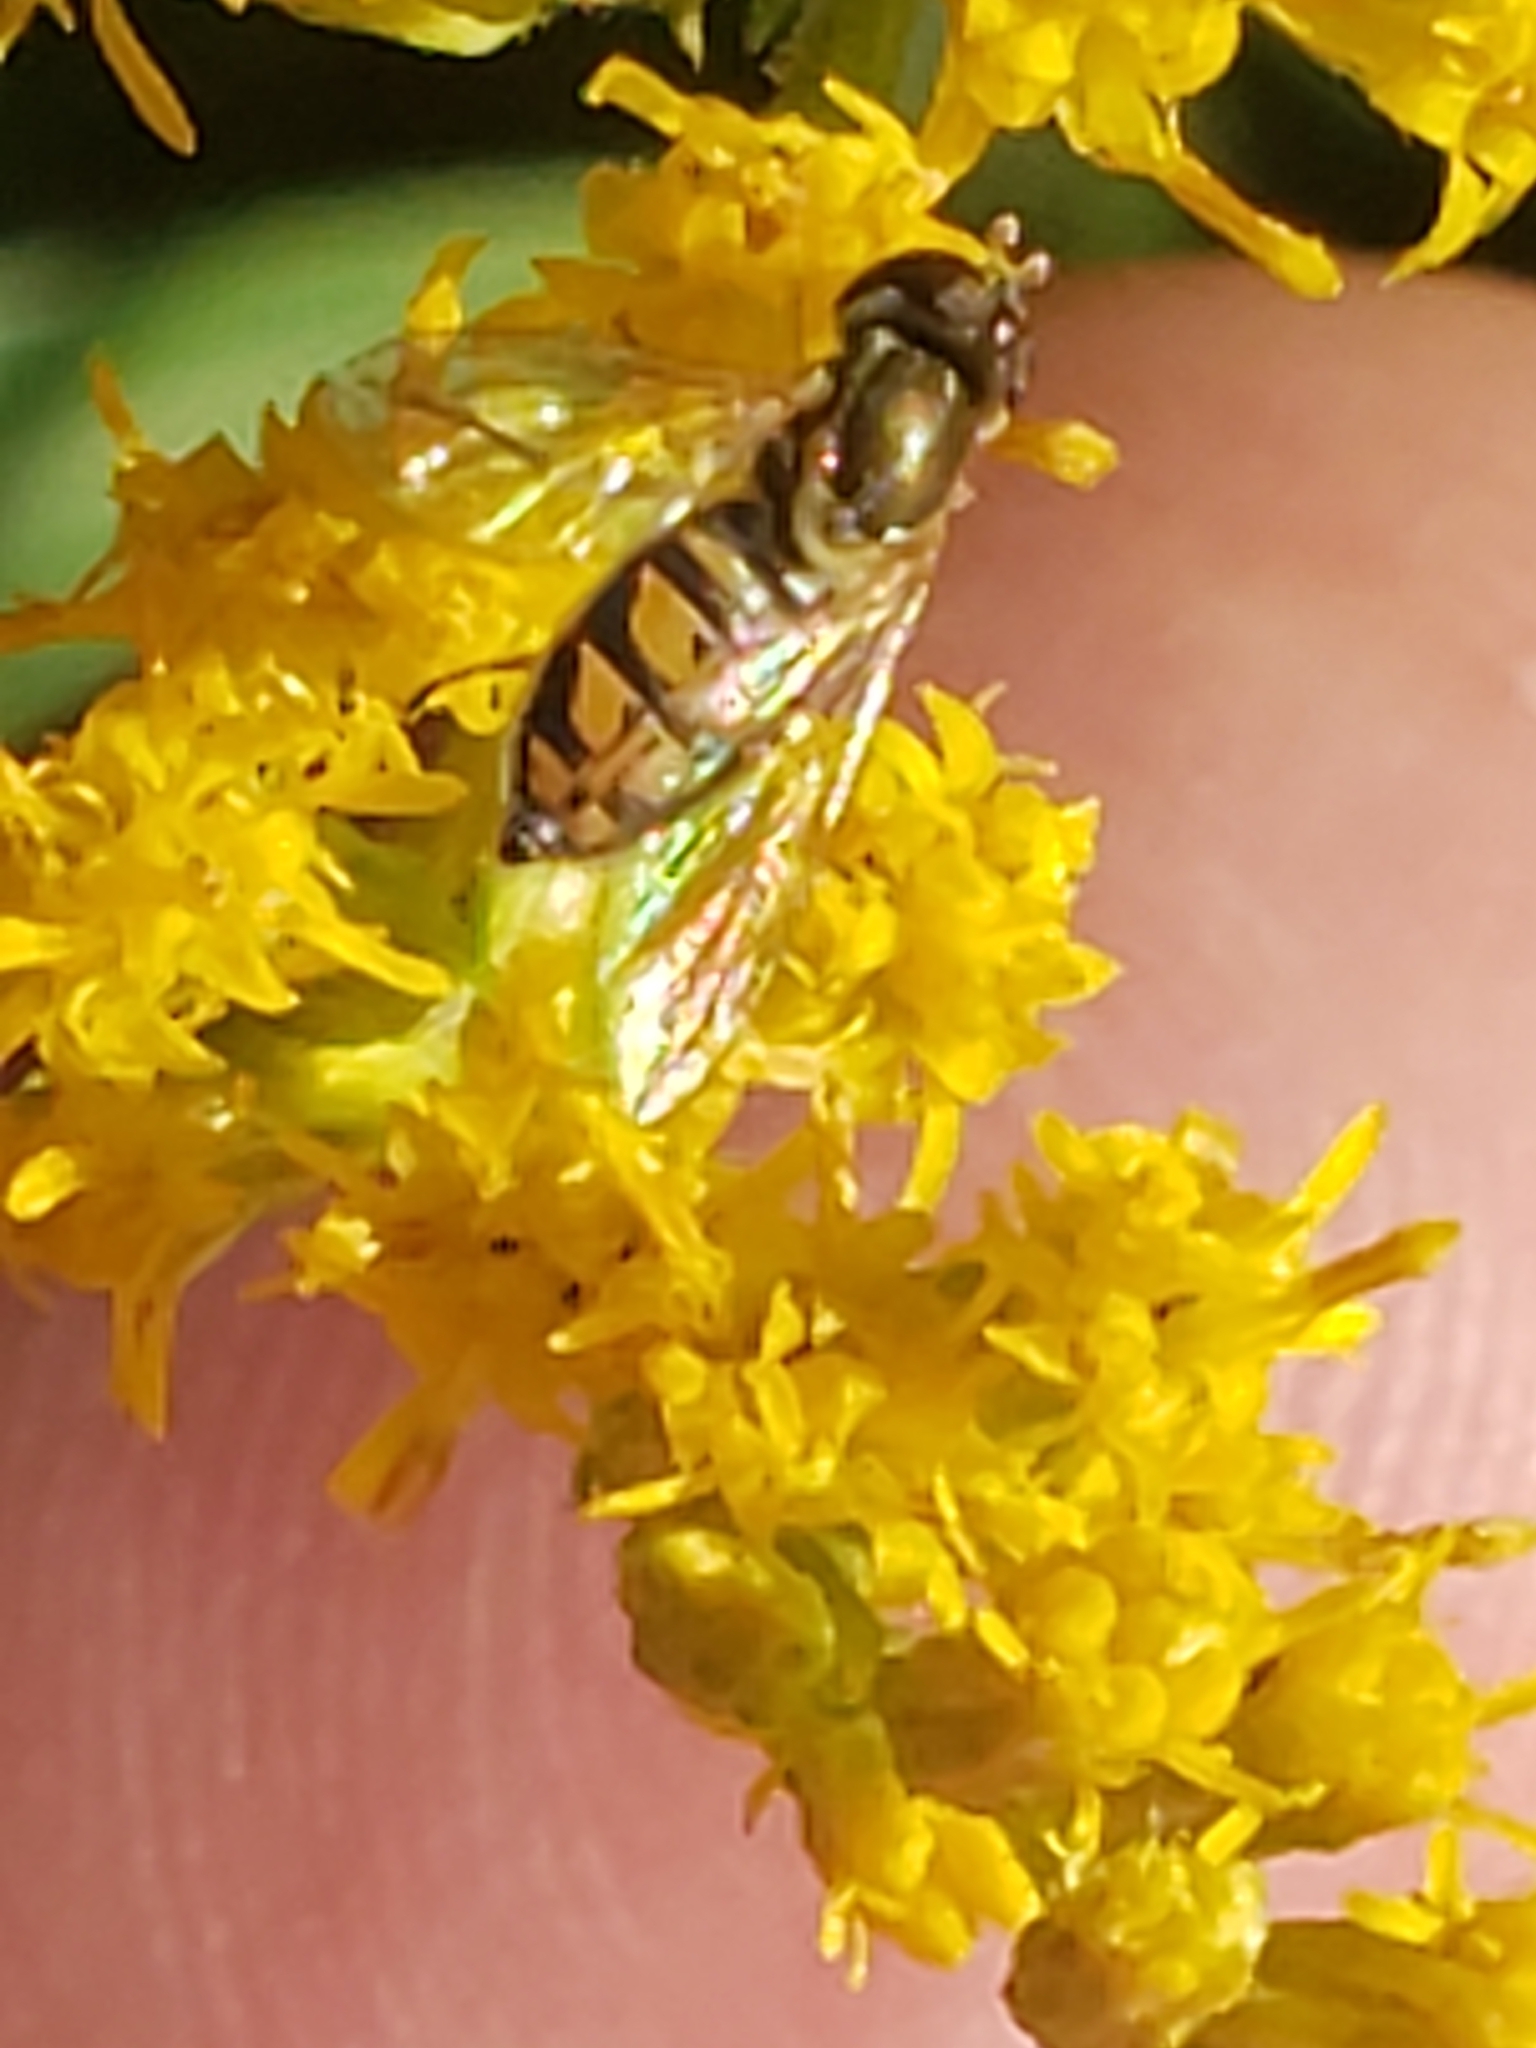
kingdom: Animalia
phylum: Arthropoda
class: Insecta
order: Diptera
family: Syrphidae
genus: Toxomerus
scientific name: Toxomerus marginatus
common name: Syrphid fly
